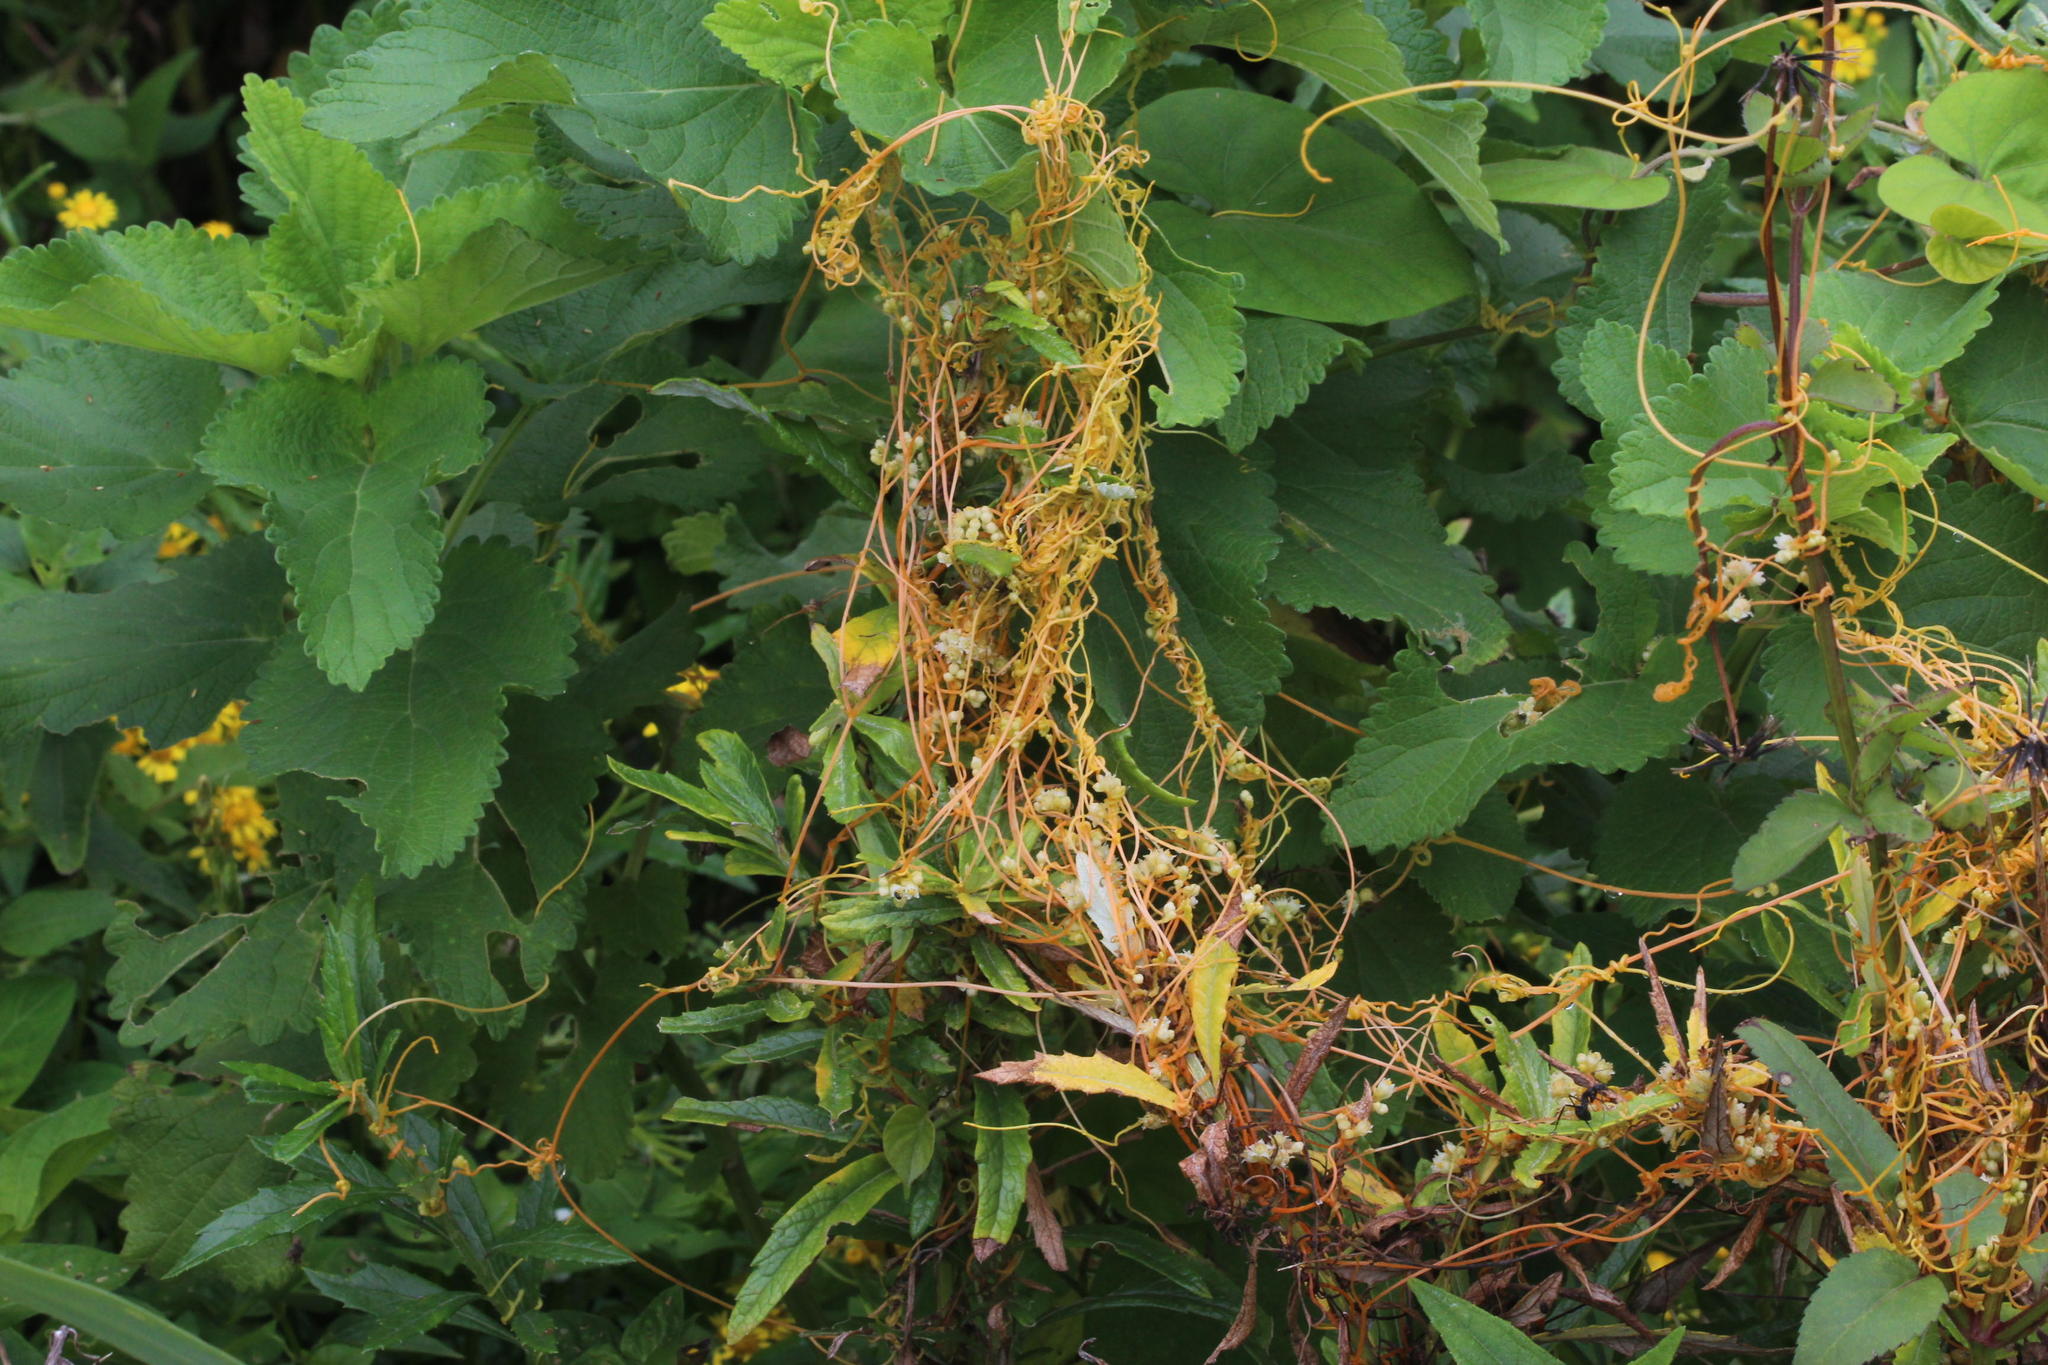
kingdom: Plantae
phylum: Tracheophyta
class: Magnoliopsida
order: Solanales
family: Convolvulaceae
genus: Cuscuta
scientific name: Cuscuta campestris
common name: Yellow dodder
